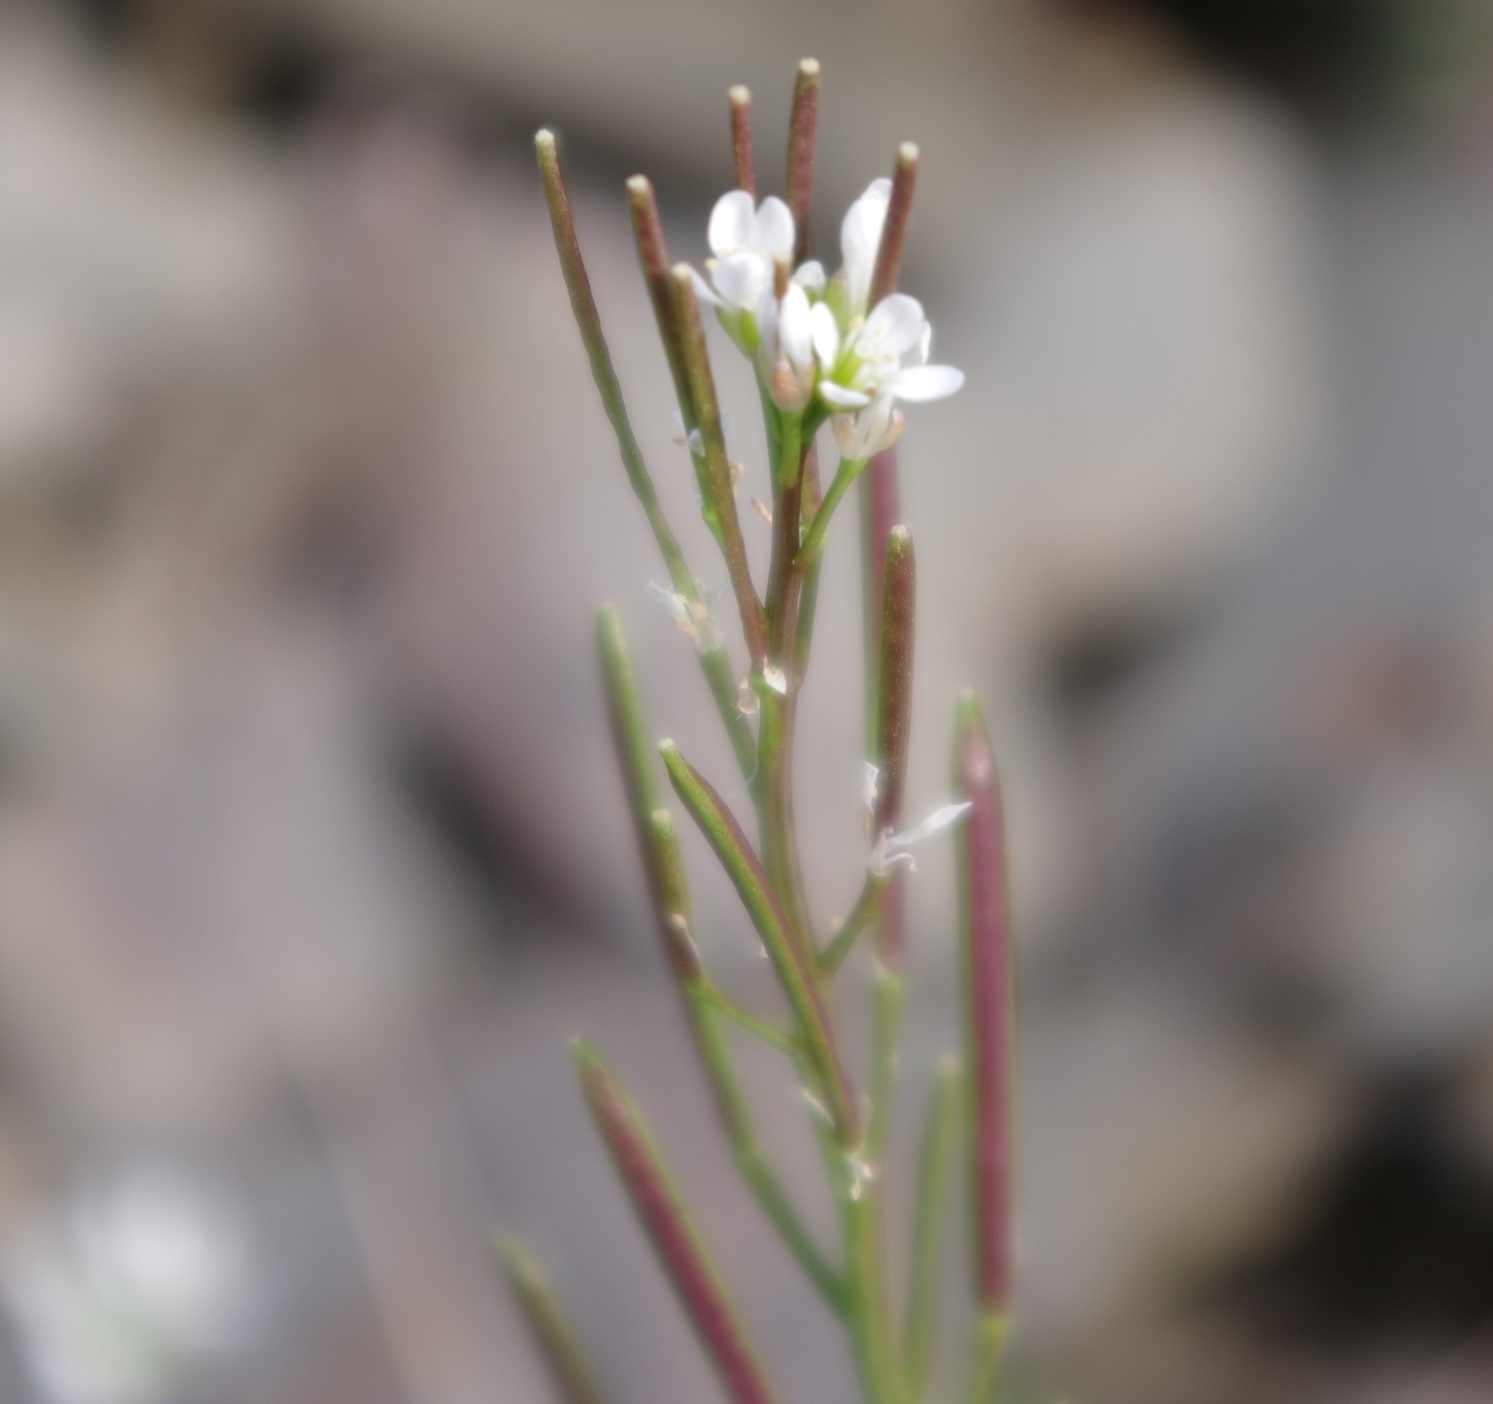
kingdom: Plantae
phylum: Tracheophyta
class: Magnoliopsida
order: Brassicales
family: Brassicaceae
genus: Cardamine
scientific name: Cardamine hirsuta
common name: Hairy bittercress
